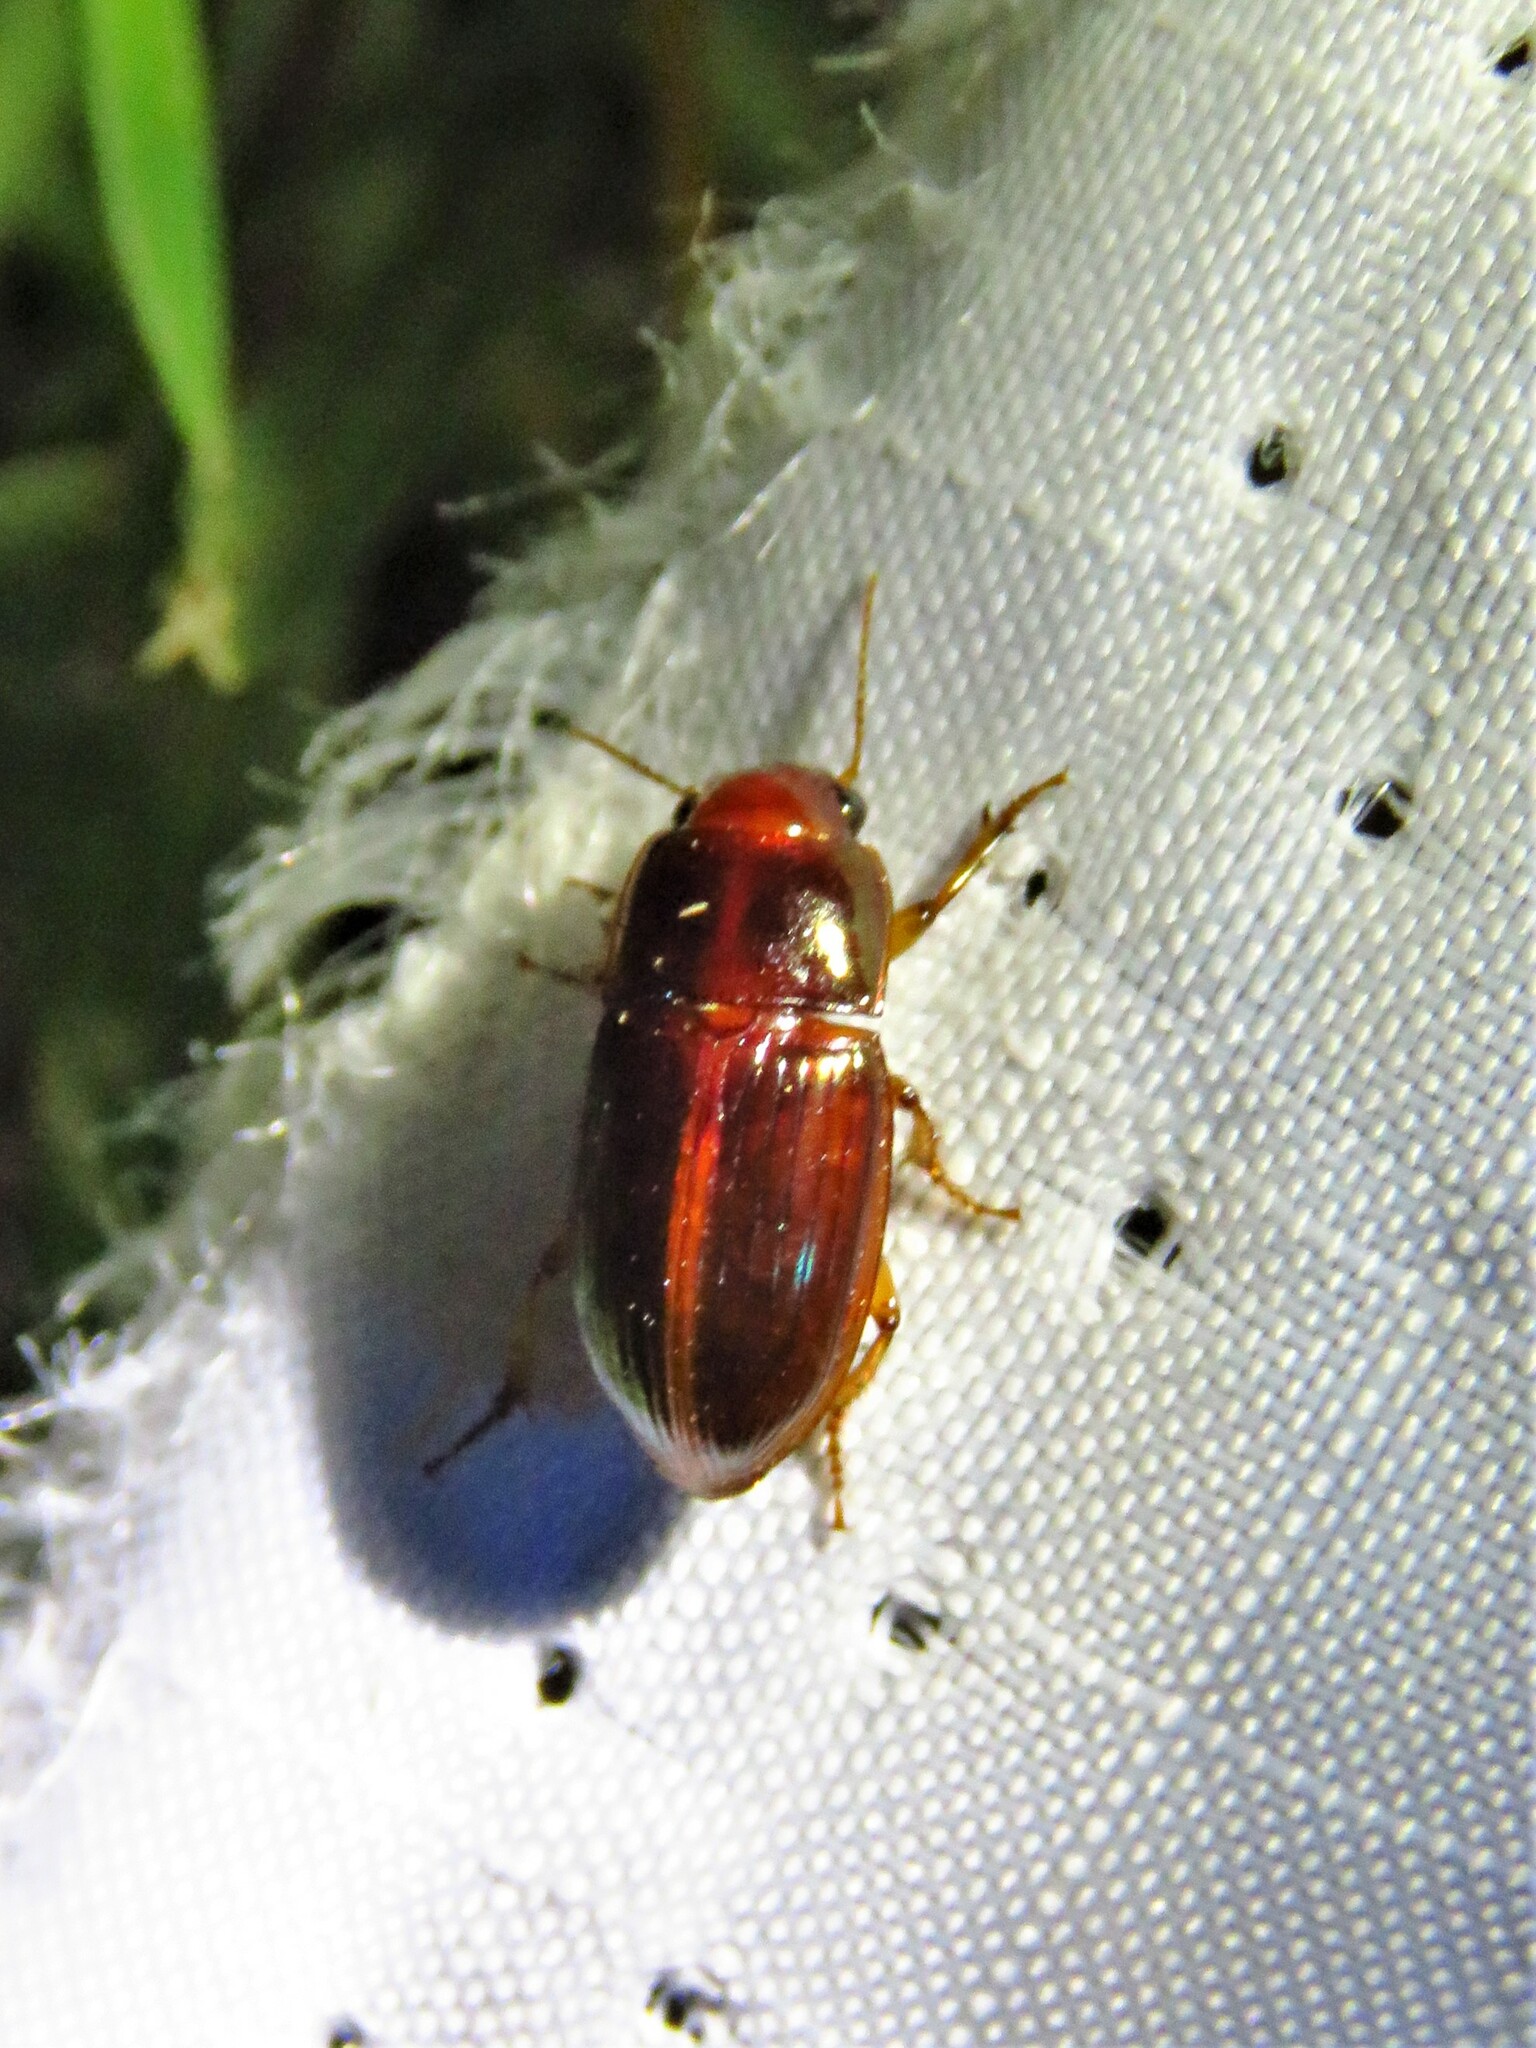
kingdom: Animalia
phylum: Arthropoda
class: Insecta
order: Coleoptera
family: Carabidae
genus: Harpalus
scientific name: Harpalus gravis
